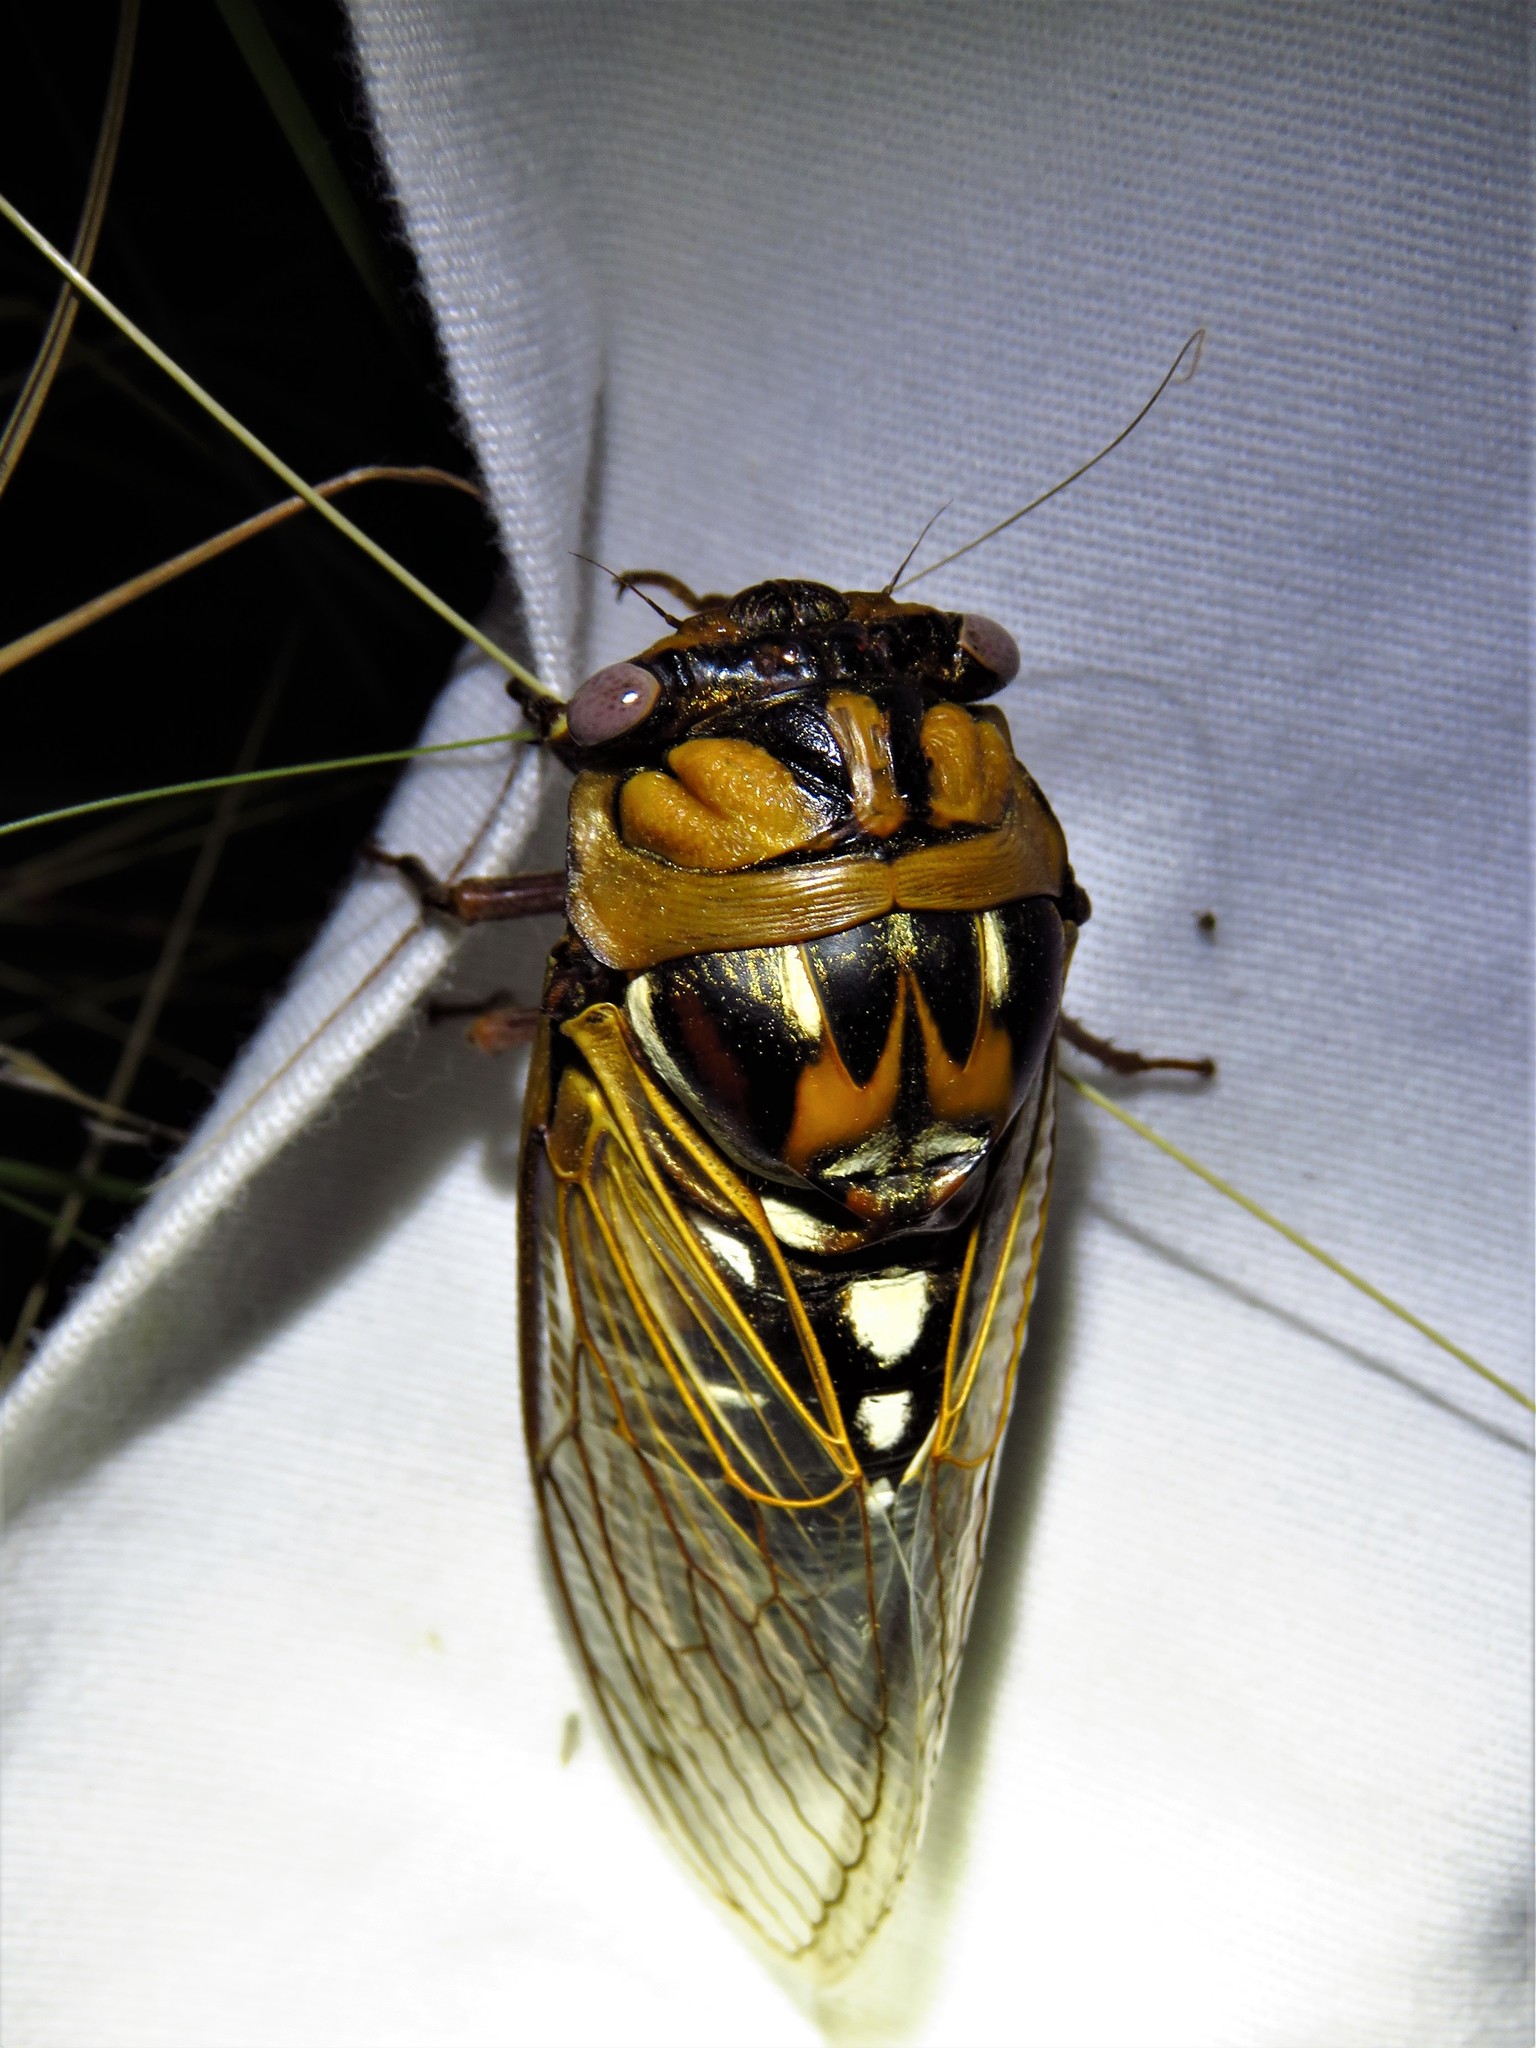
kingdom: Animalia
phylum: Arthropoda
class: Insecta
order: Hemiptera
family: Cicadidae
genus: Megatibicen
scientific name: Megatibicen dorsatus
